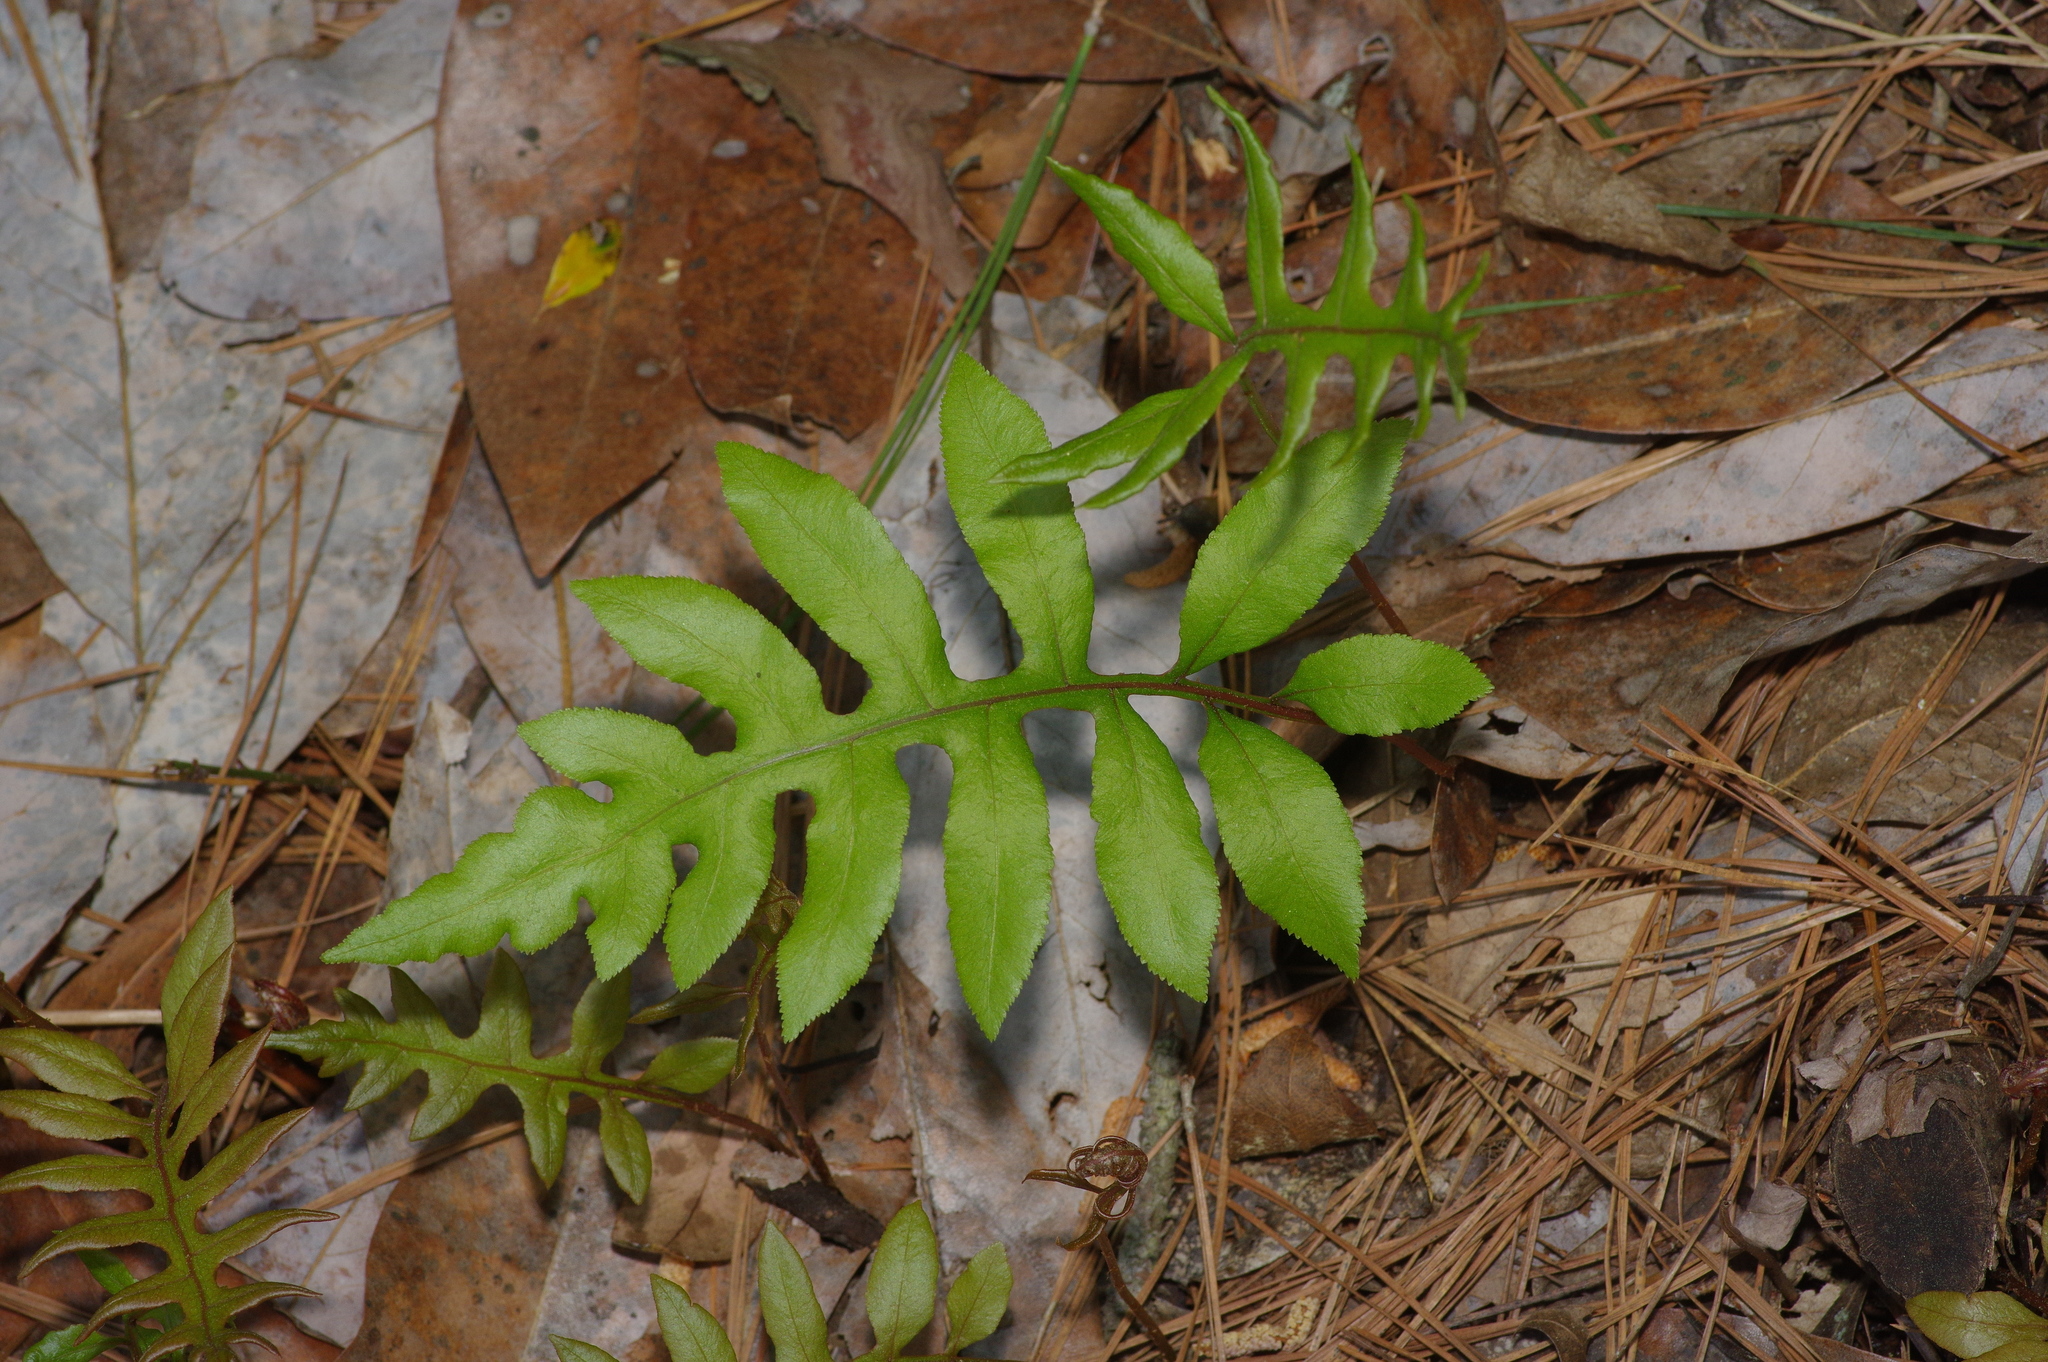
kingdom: Plantae
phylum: Tracheophyta
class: Polypodiopsida
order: Polypodiales
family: Blechnaceae
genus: Lorinseria
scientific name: Lorinseria areolata
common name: Dwarf chain fern
